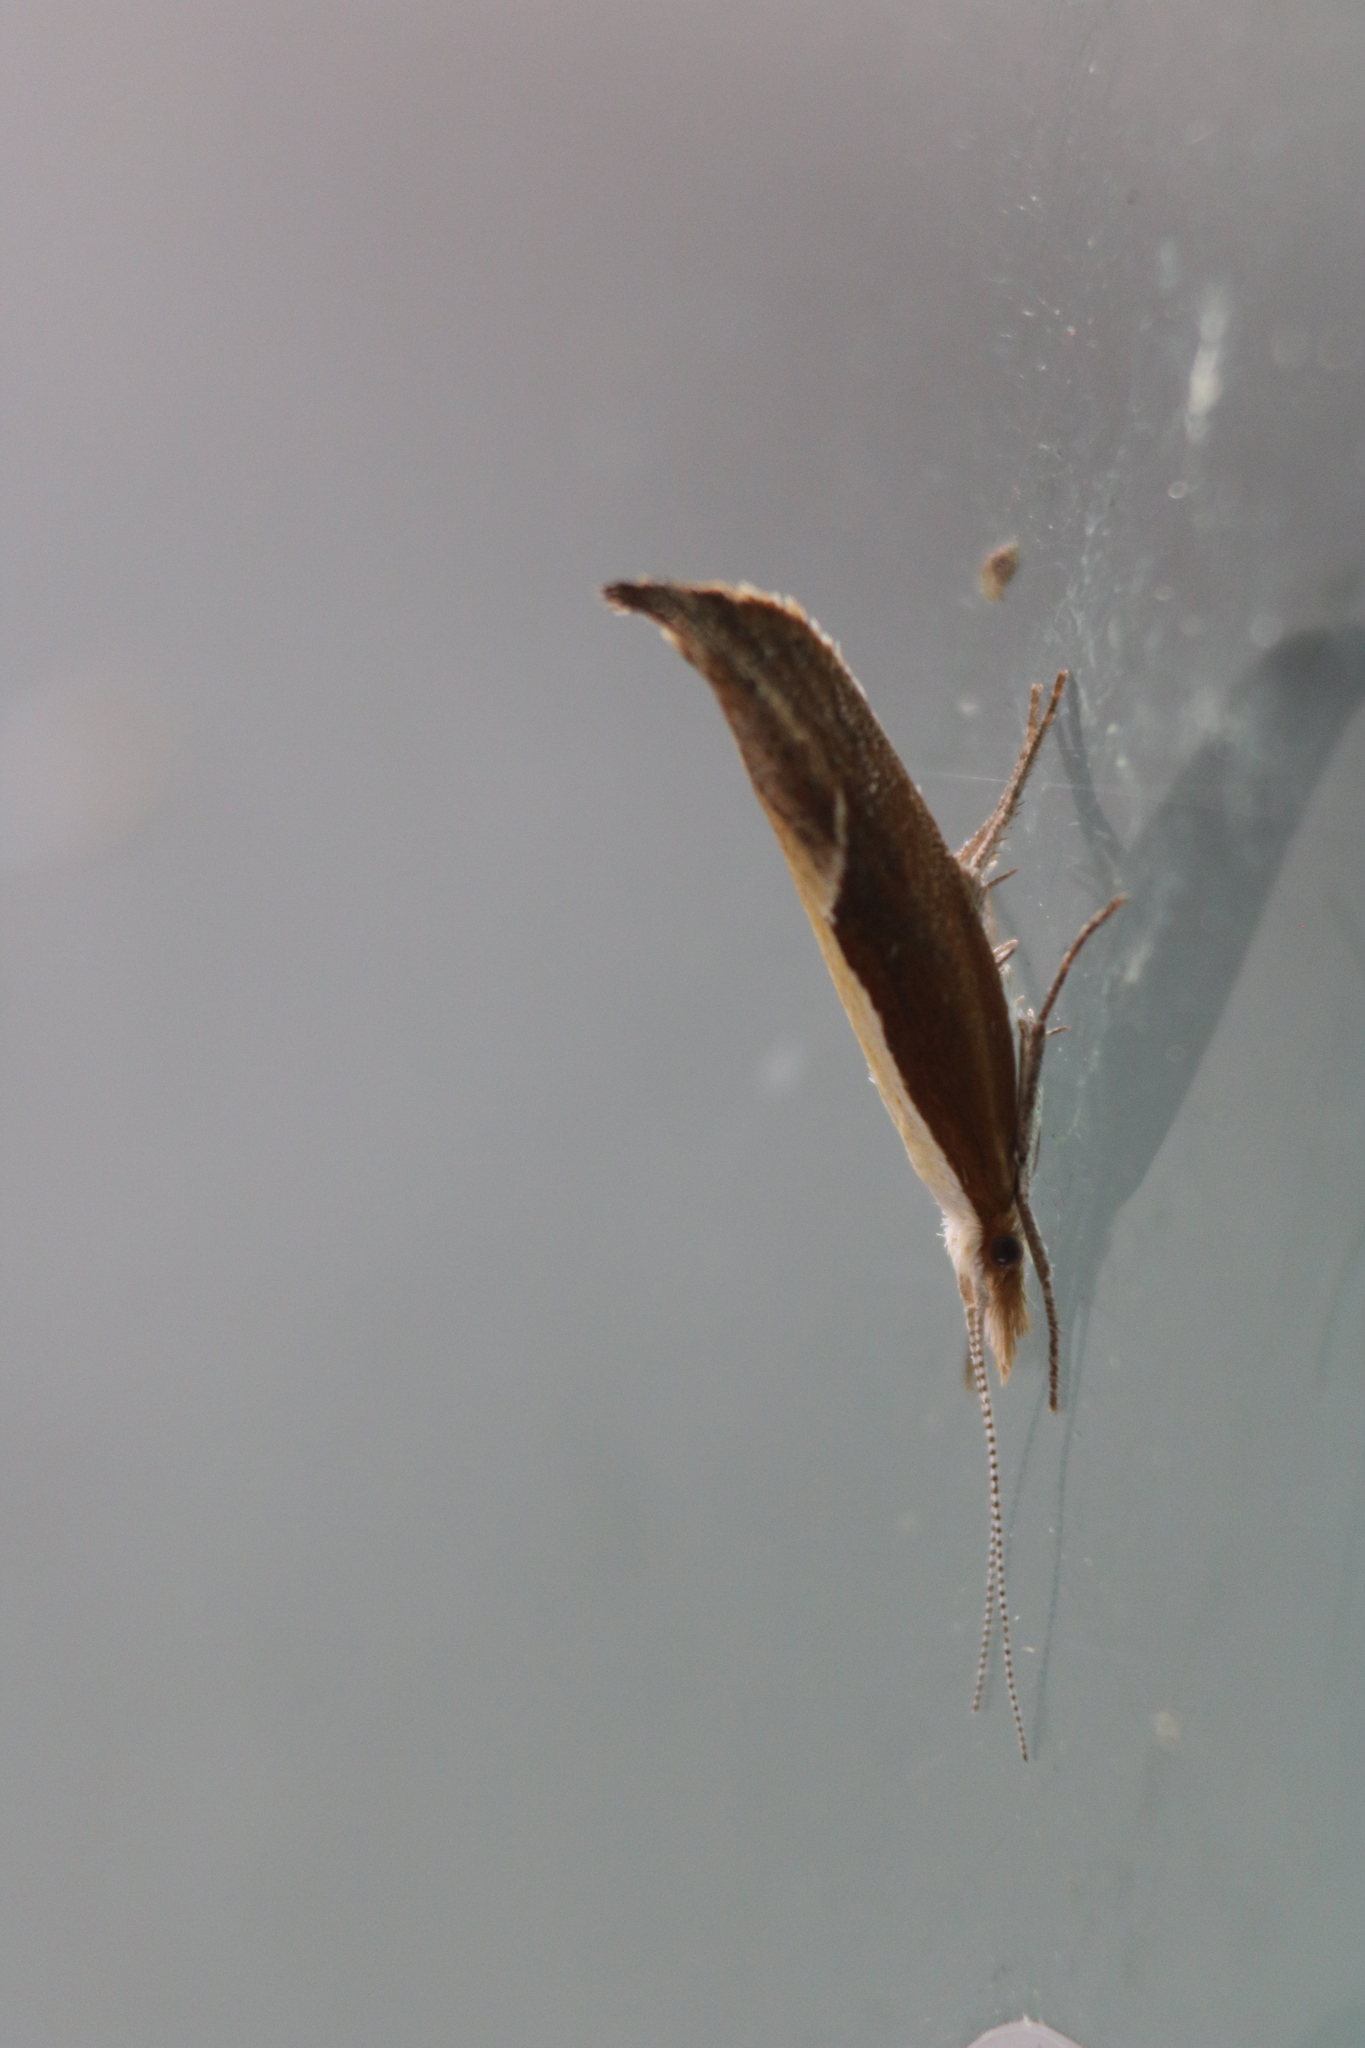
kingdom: Animalia
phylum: Arthropoda
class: Insecta
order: Lepidoptera
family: Ypsolophidae
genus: Ypsolopha
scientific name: Ypsolopha dentella
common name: Honeysuckle moth
